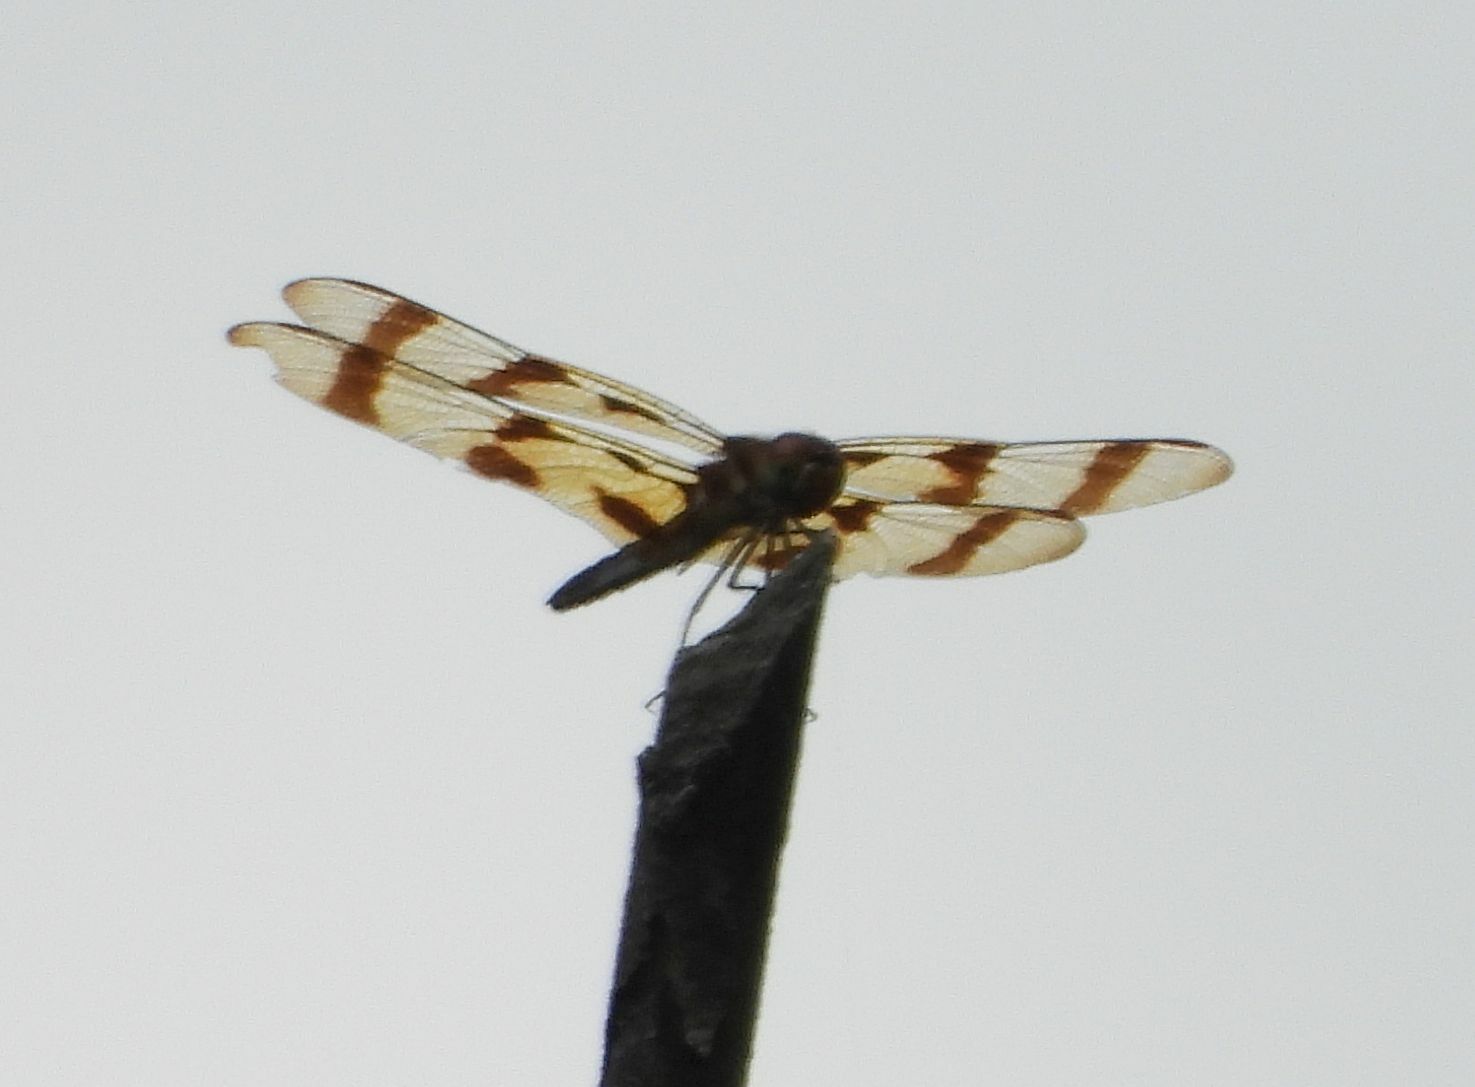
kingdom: Animalia
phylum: Arthropoda
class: Insecta
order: Odonata
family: Libellulidae
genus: Celithemis
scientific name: Celithemis eponina
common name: Halloween pennant
